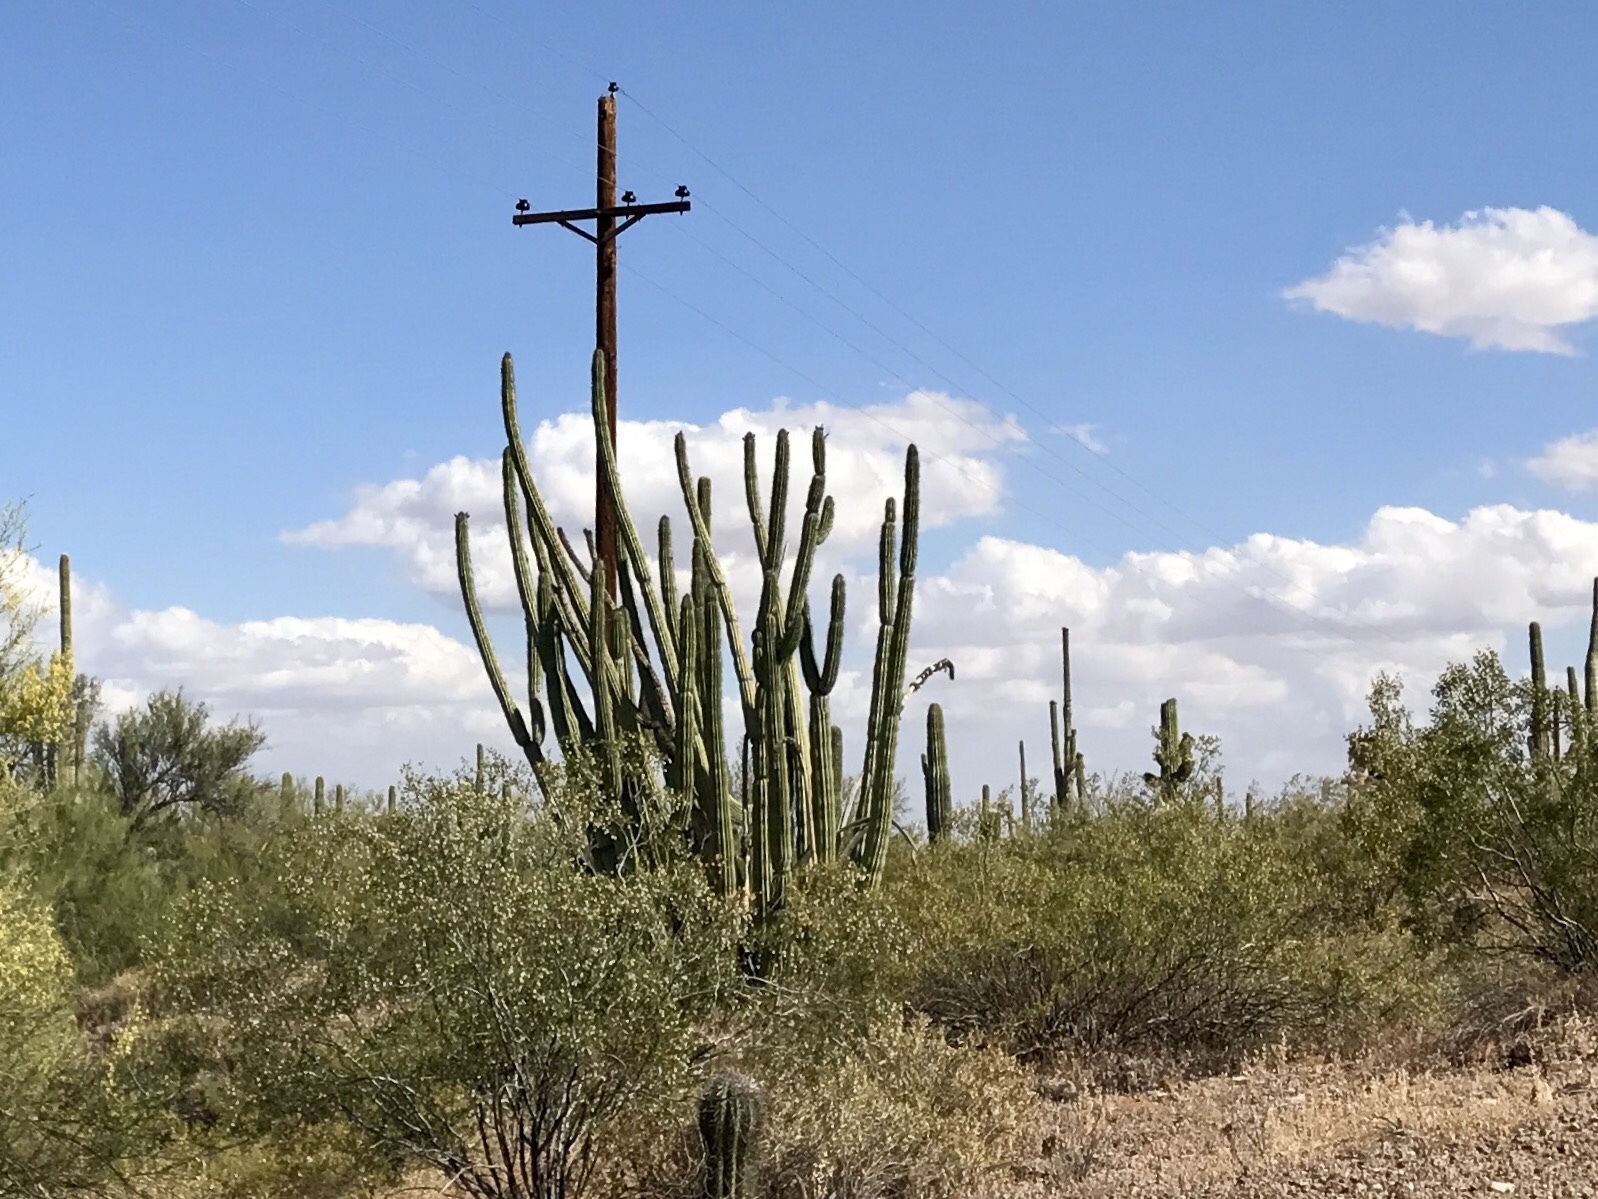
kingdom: Plantae
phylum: Tracheophyta
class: Magnoliopsida
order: Caryophyllales
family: Cactaceae
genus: Stenocereus
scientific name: Stenocereus thurberi
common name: Organ pipe cactus
